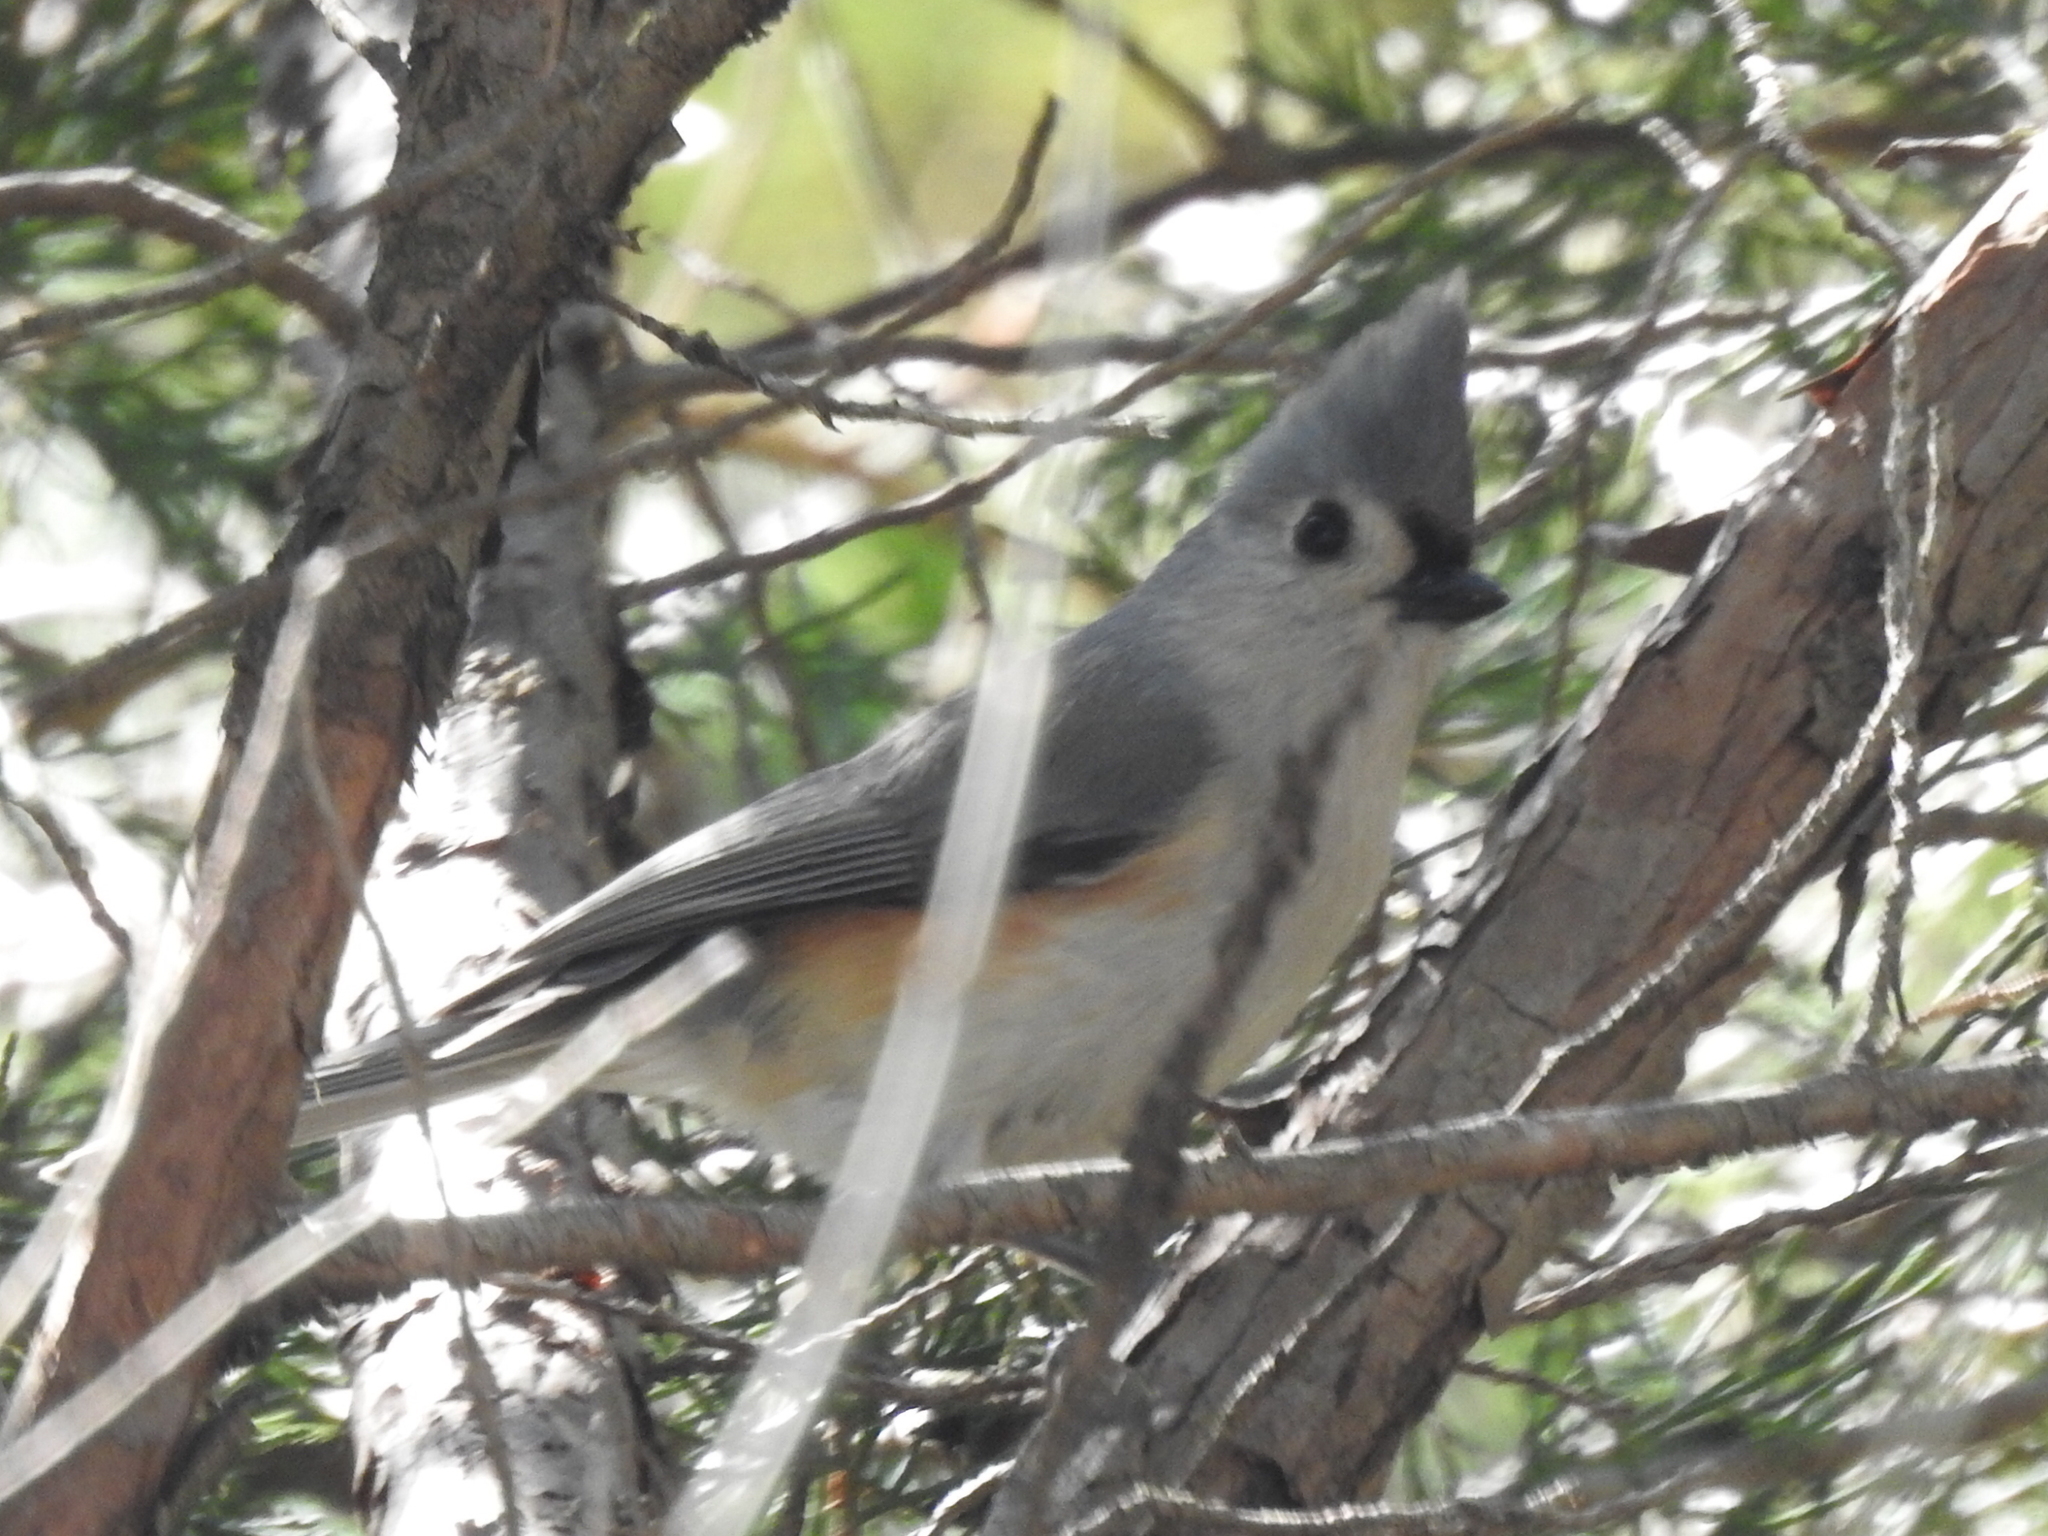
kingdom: Animalia
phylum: Chordata
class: Aves
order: Passeriformes
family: Paridae
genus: Baeolophus
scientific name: Baeolophus bicolor
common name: Tufted titmouse
